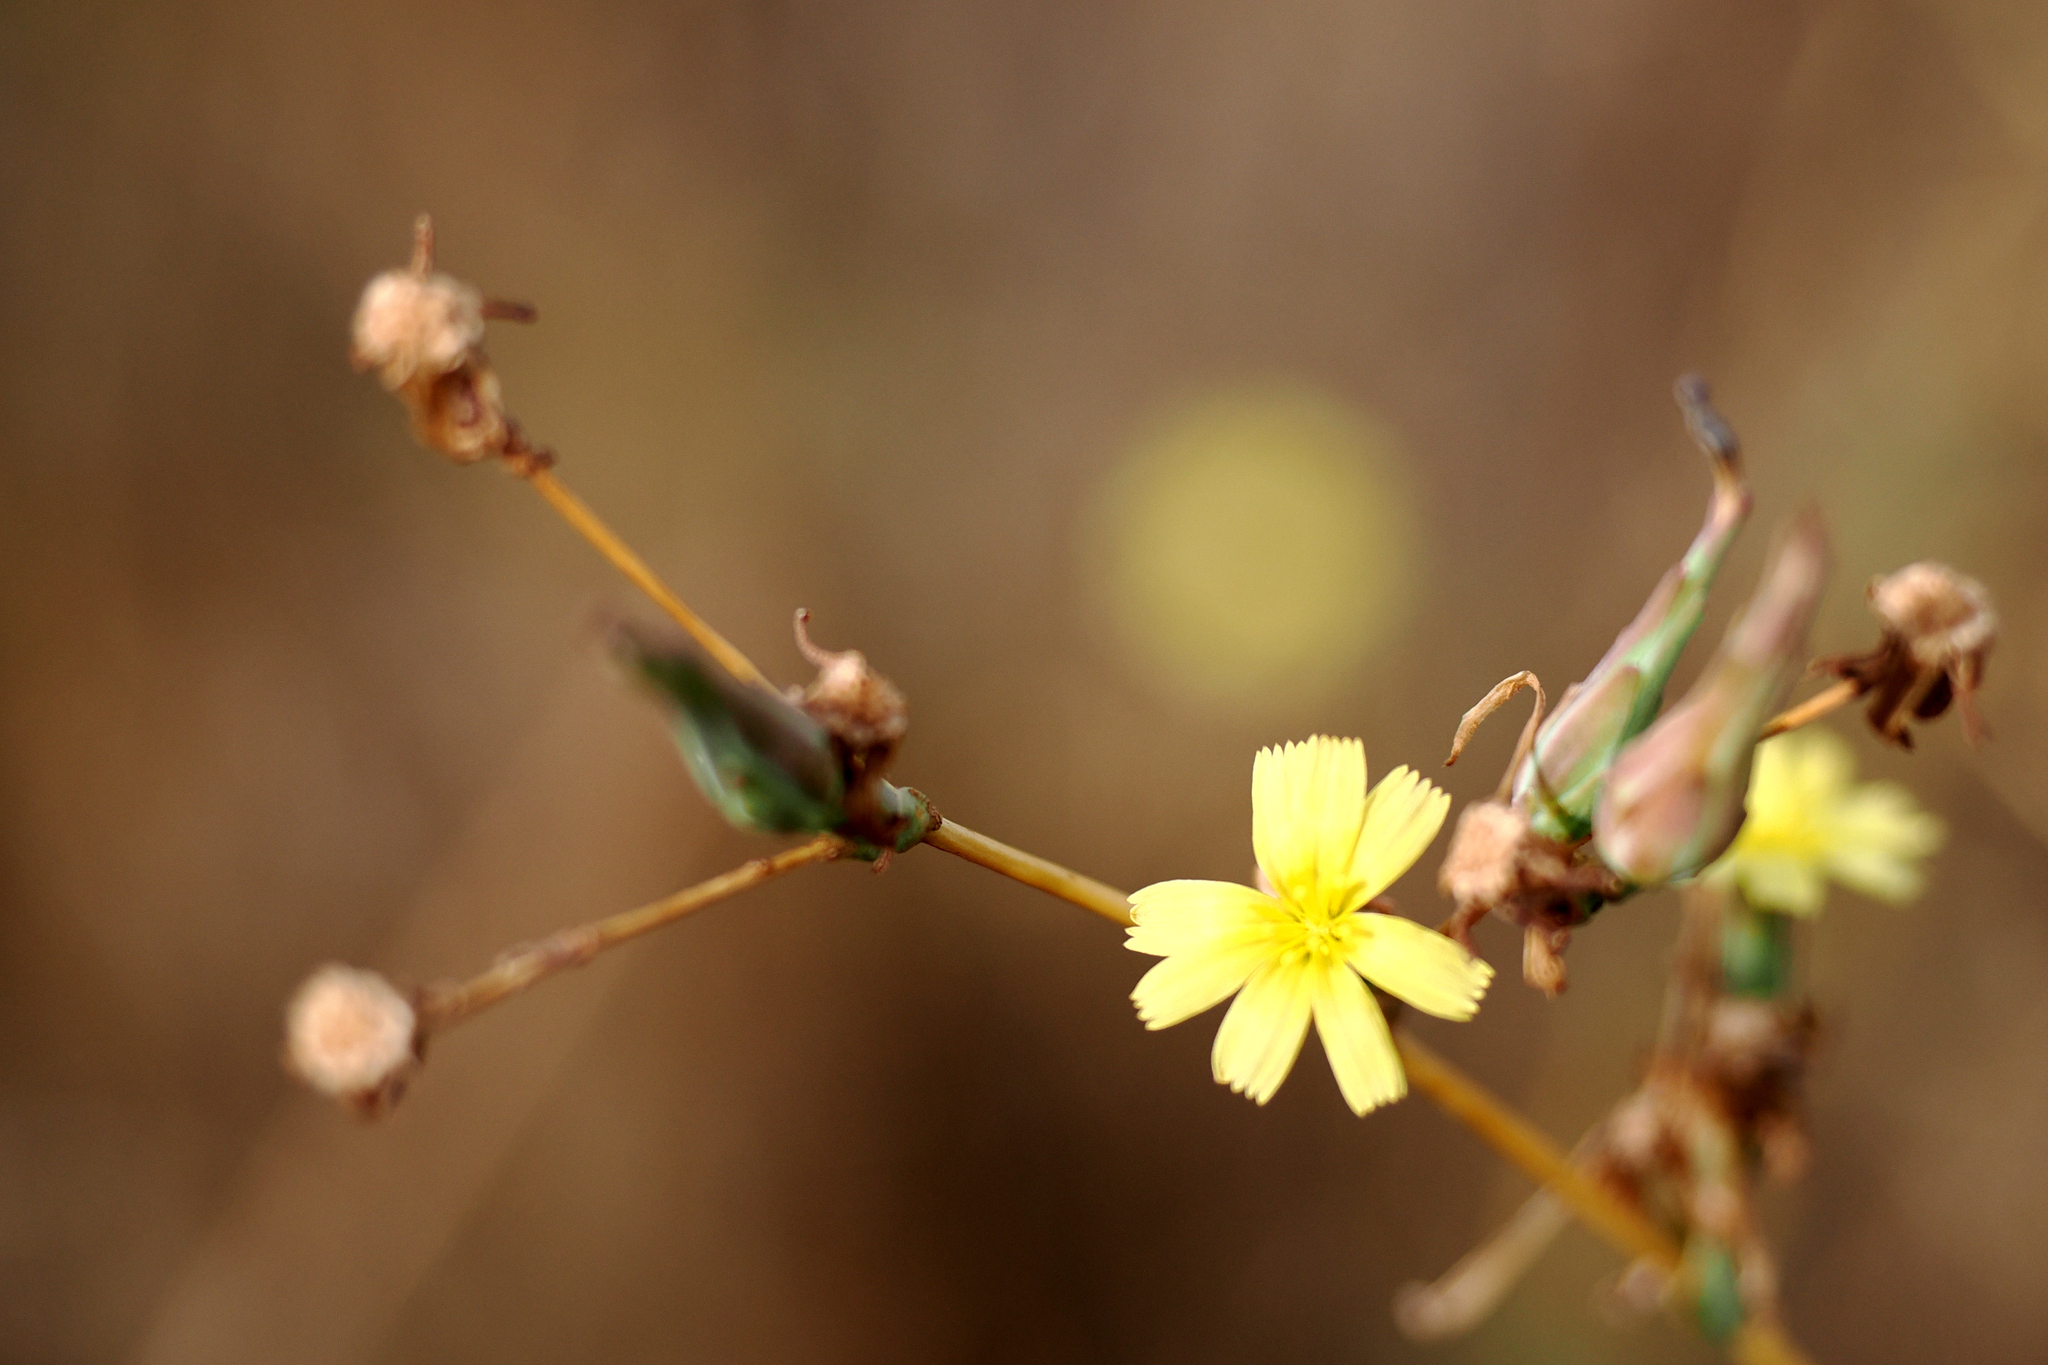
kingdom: Plantae
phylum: Tracheophyta
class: Magnoliopsida
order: Asterales
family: Asteraceae
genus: Lactuca
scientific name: Lactuca serriola
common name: Prickly lettuce
